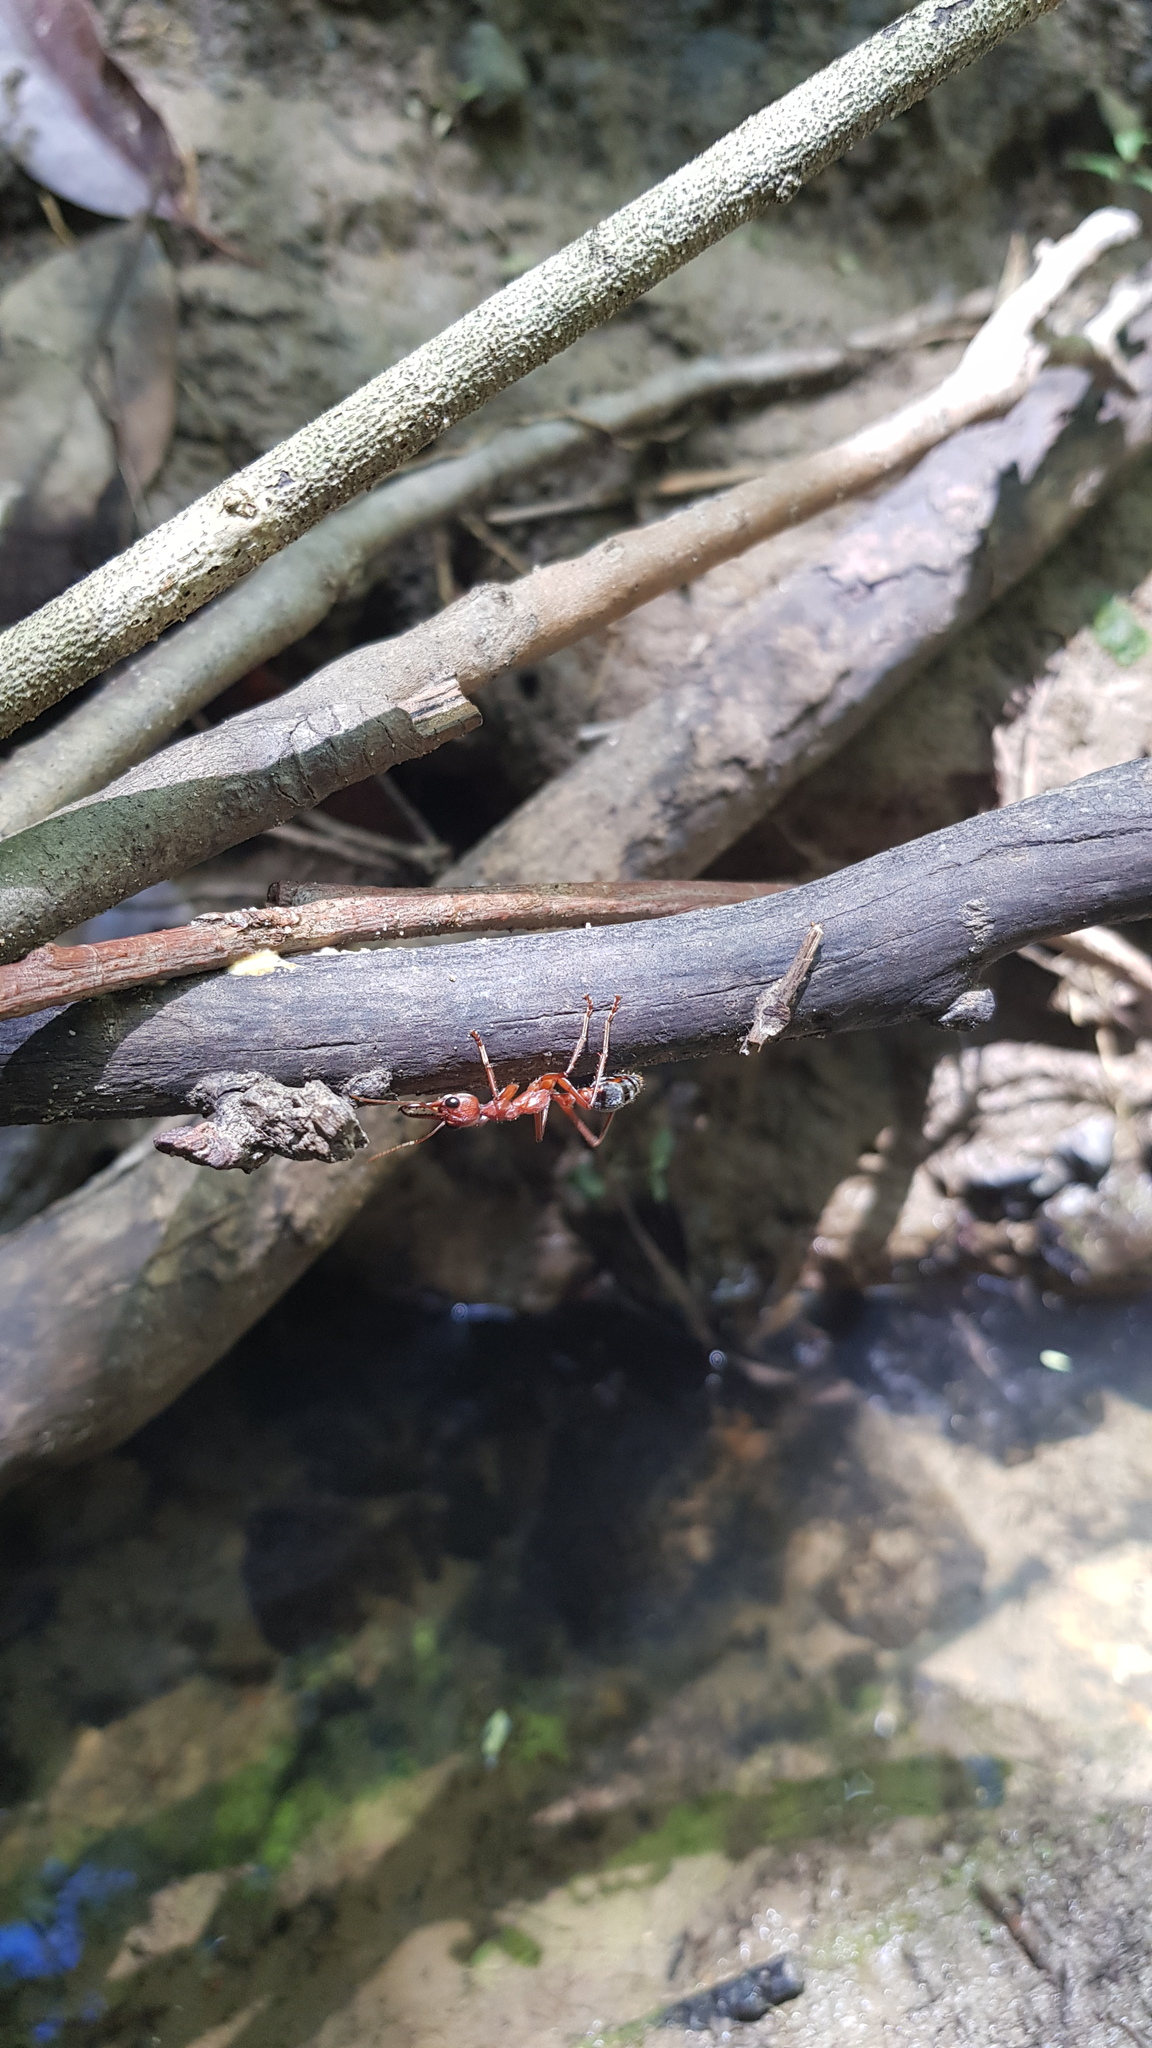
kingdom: Animalia
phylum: Arthropoda
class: Insecta
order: Hymenoptera
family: Formicidae
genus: Myrmecia
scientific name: Myrmecia brevinoda
